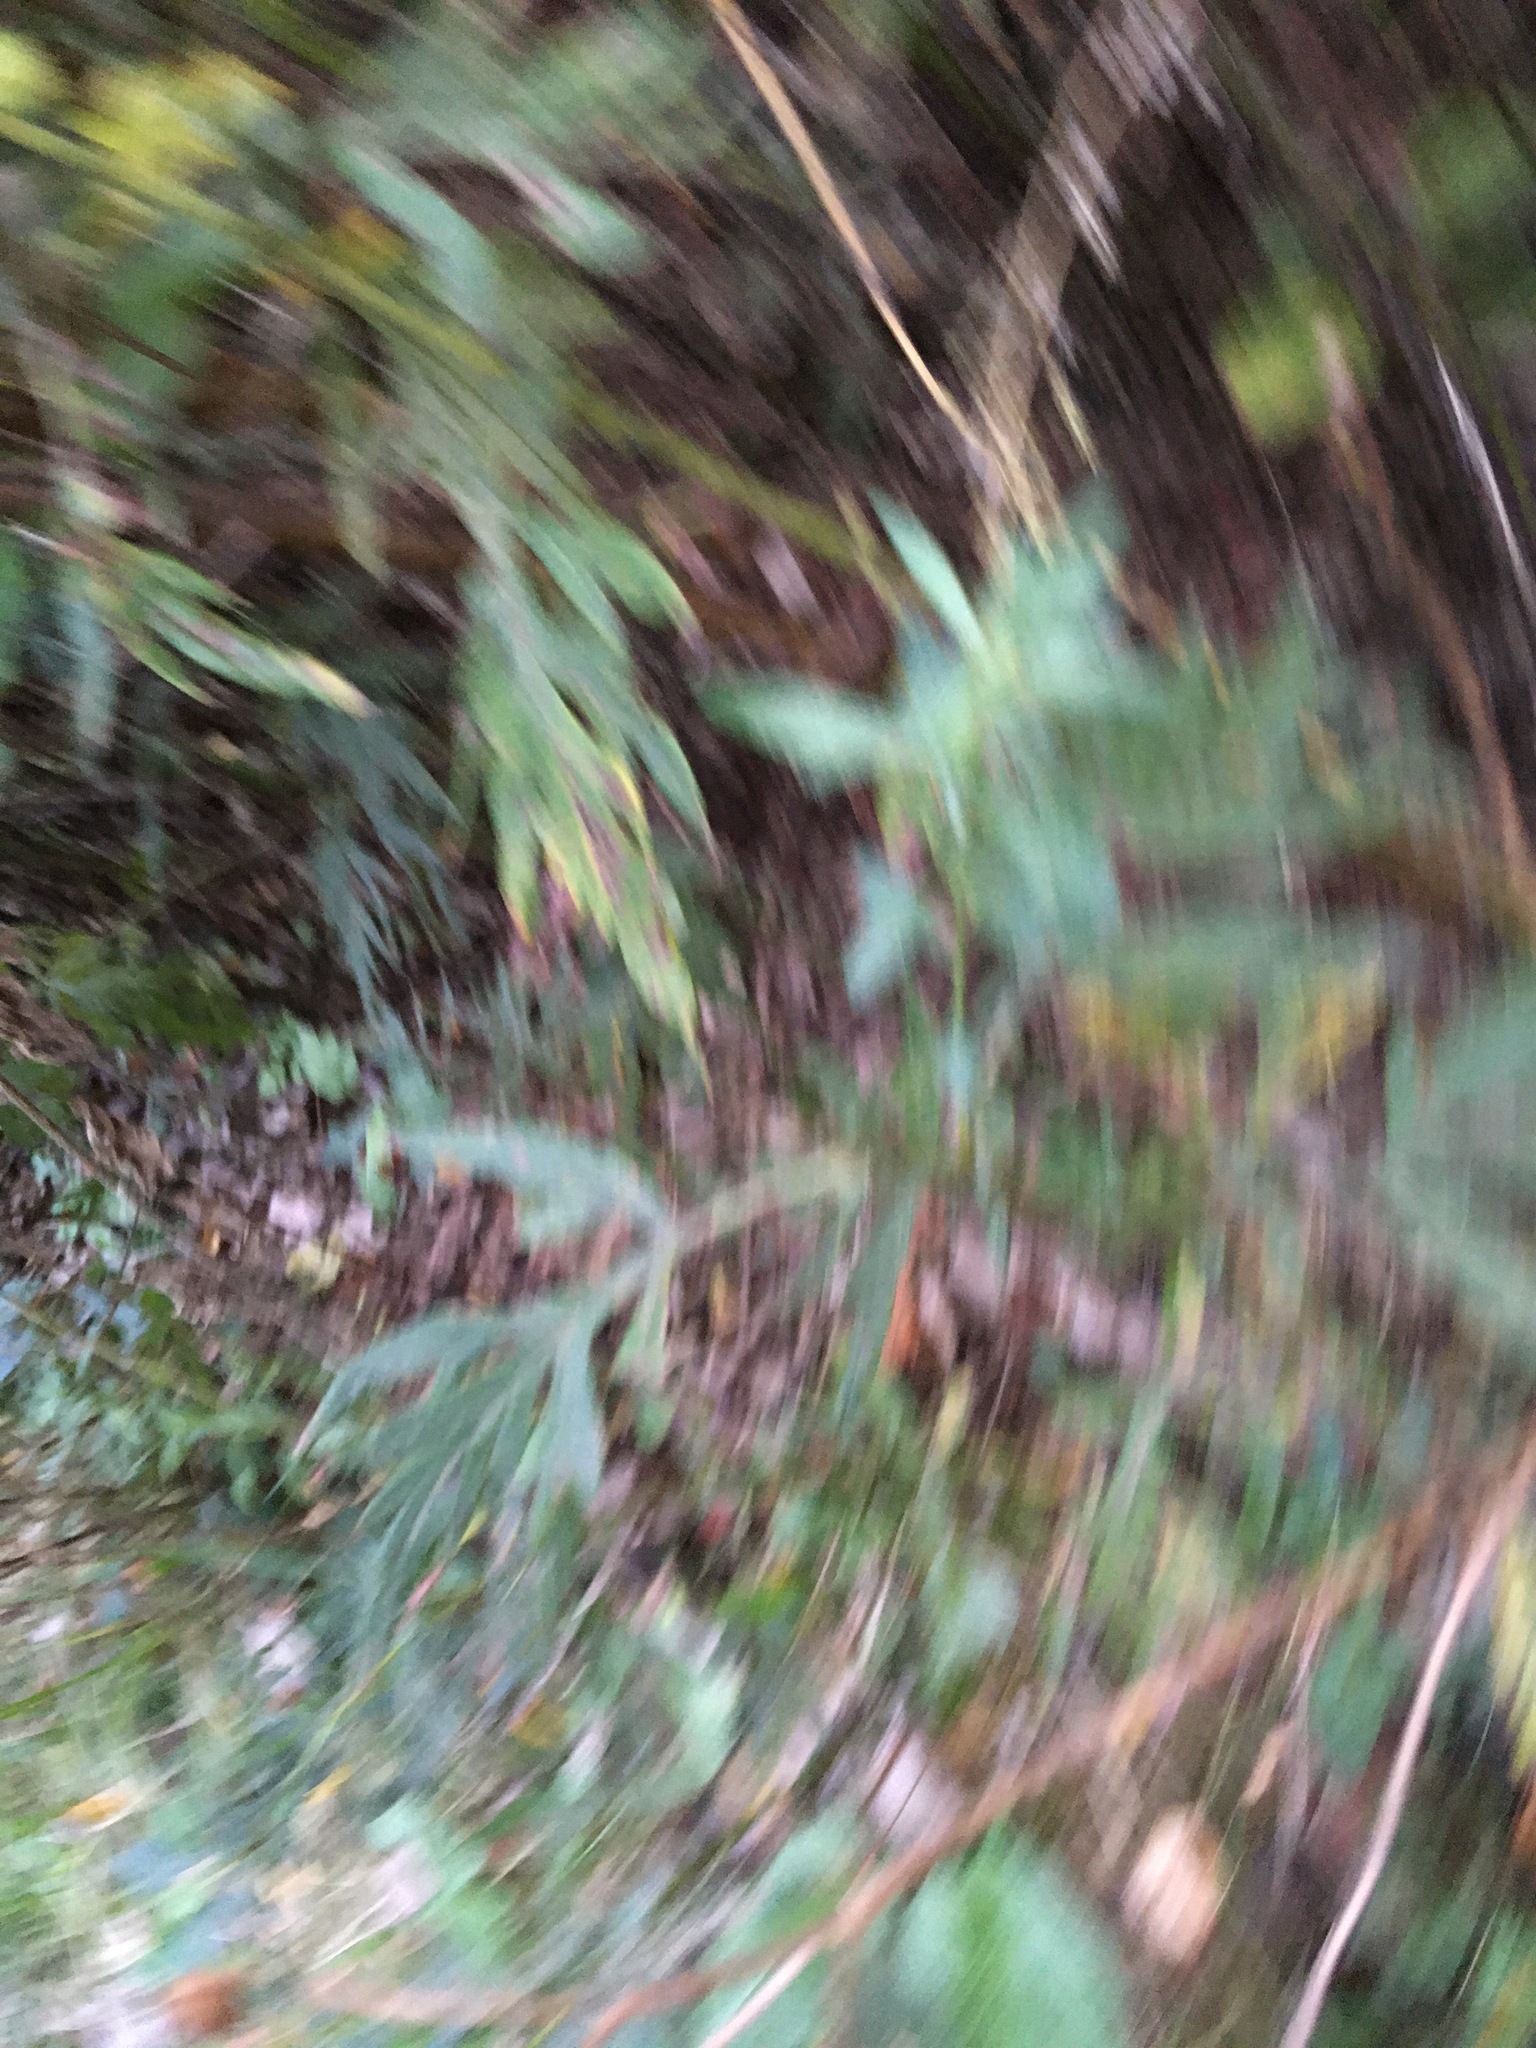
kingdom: Plantae
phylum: Tracheophyta
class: Magnoliopsida
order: Asterales
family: Asteraceae
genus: Artemisia
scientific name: Artemisia vulgaris
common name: Mugwort
